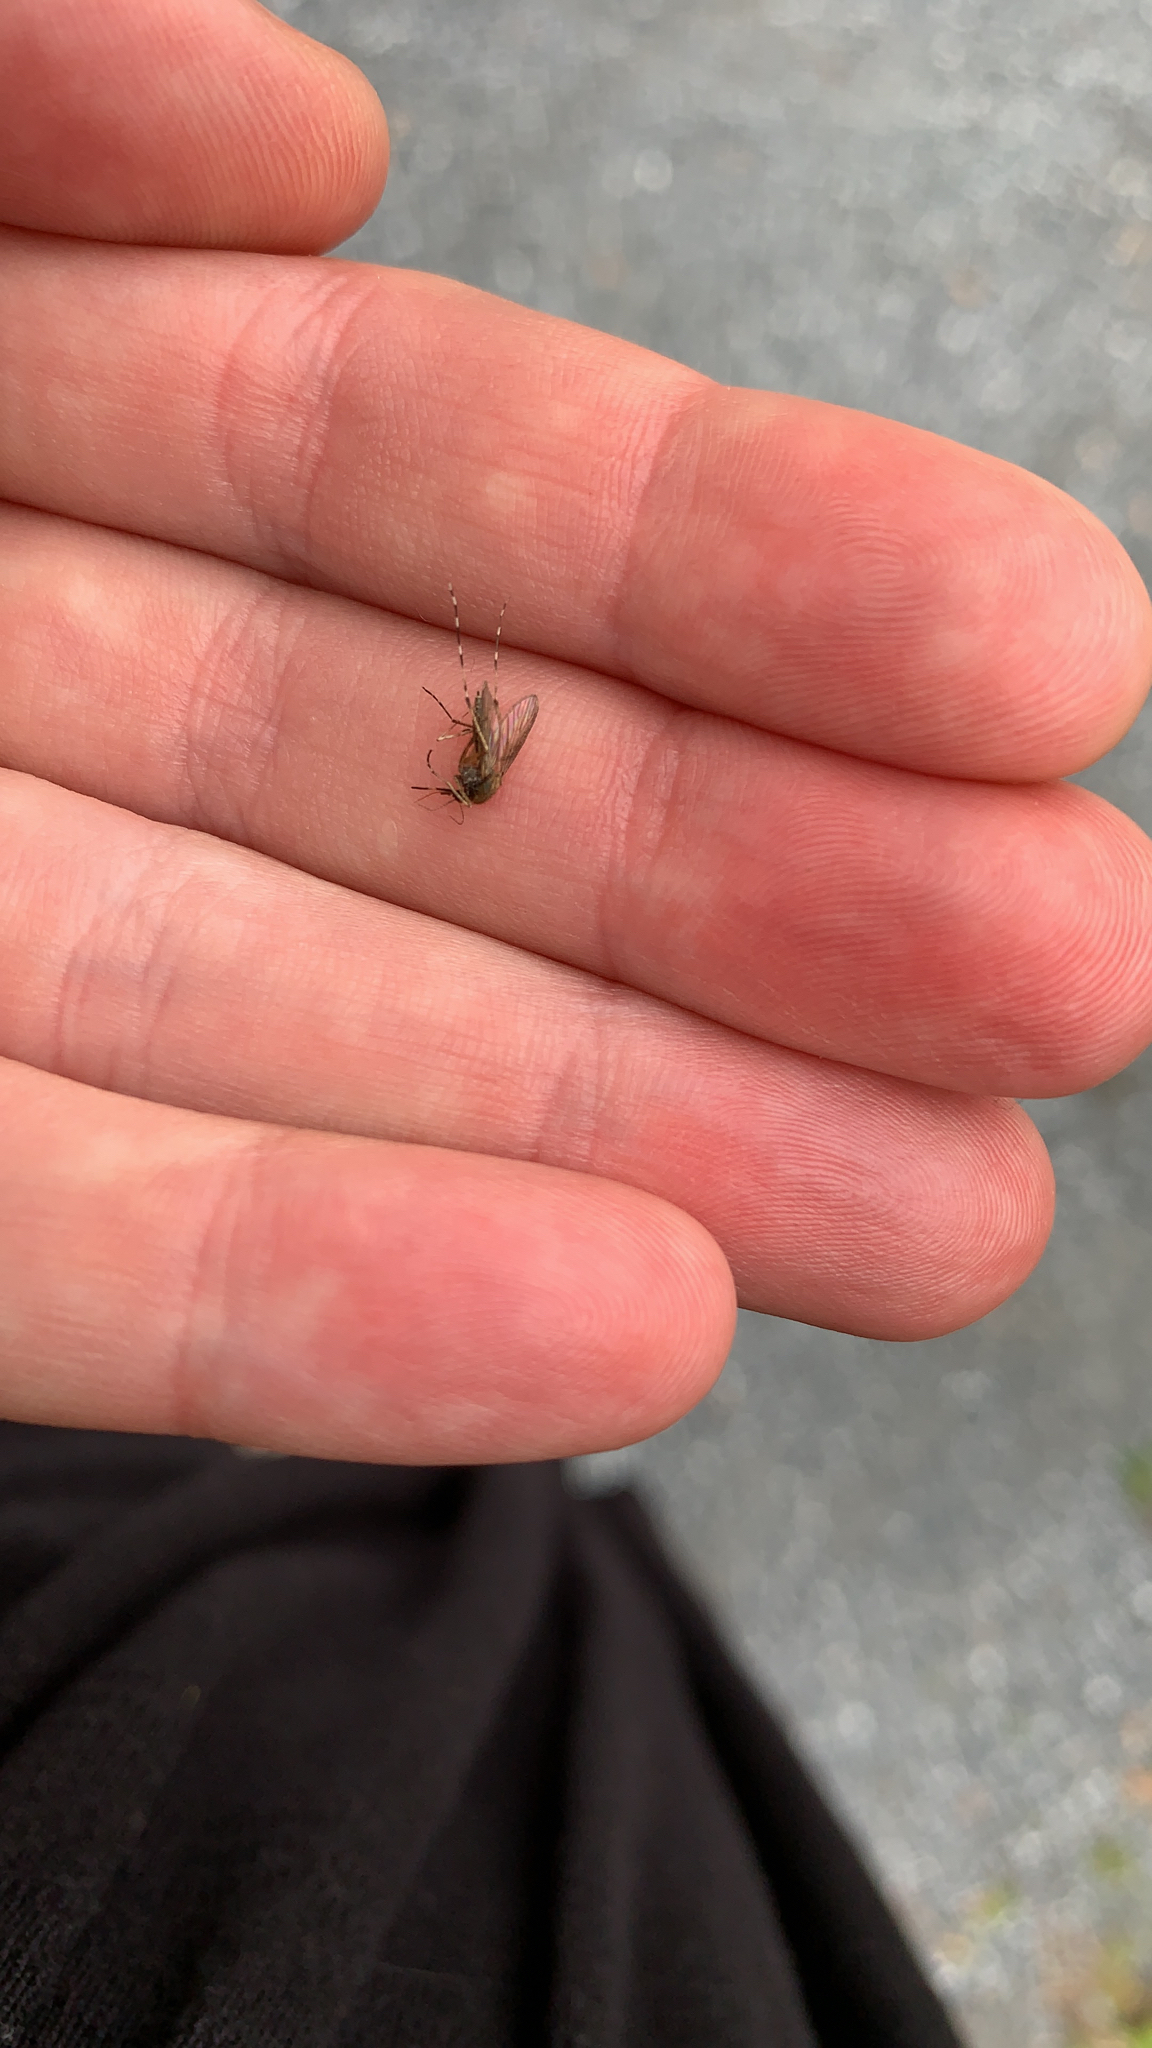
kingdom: Animalia
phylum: Arthropoda
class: Insecta
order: Diptera
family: Culicidae
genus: Aedes
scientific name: Aedes sollicitans
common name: Saltmarsh mosquito
